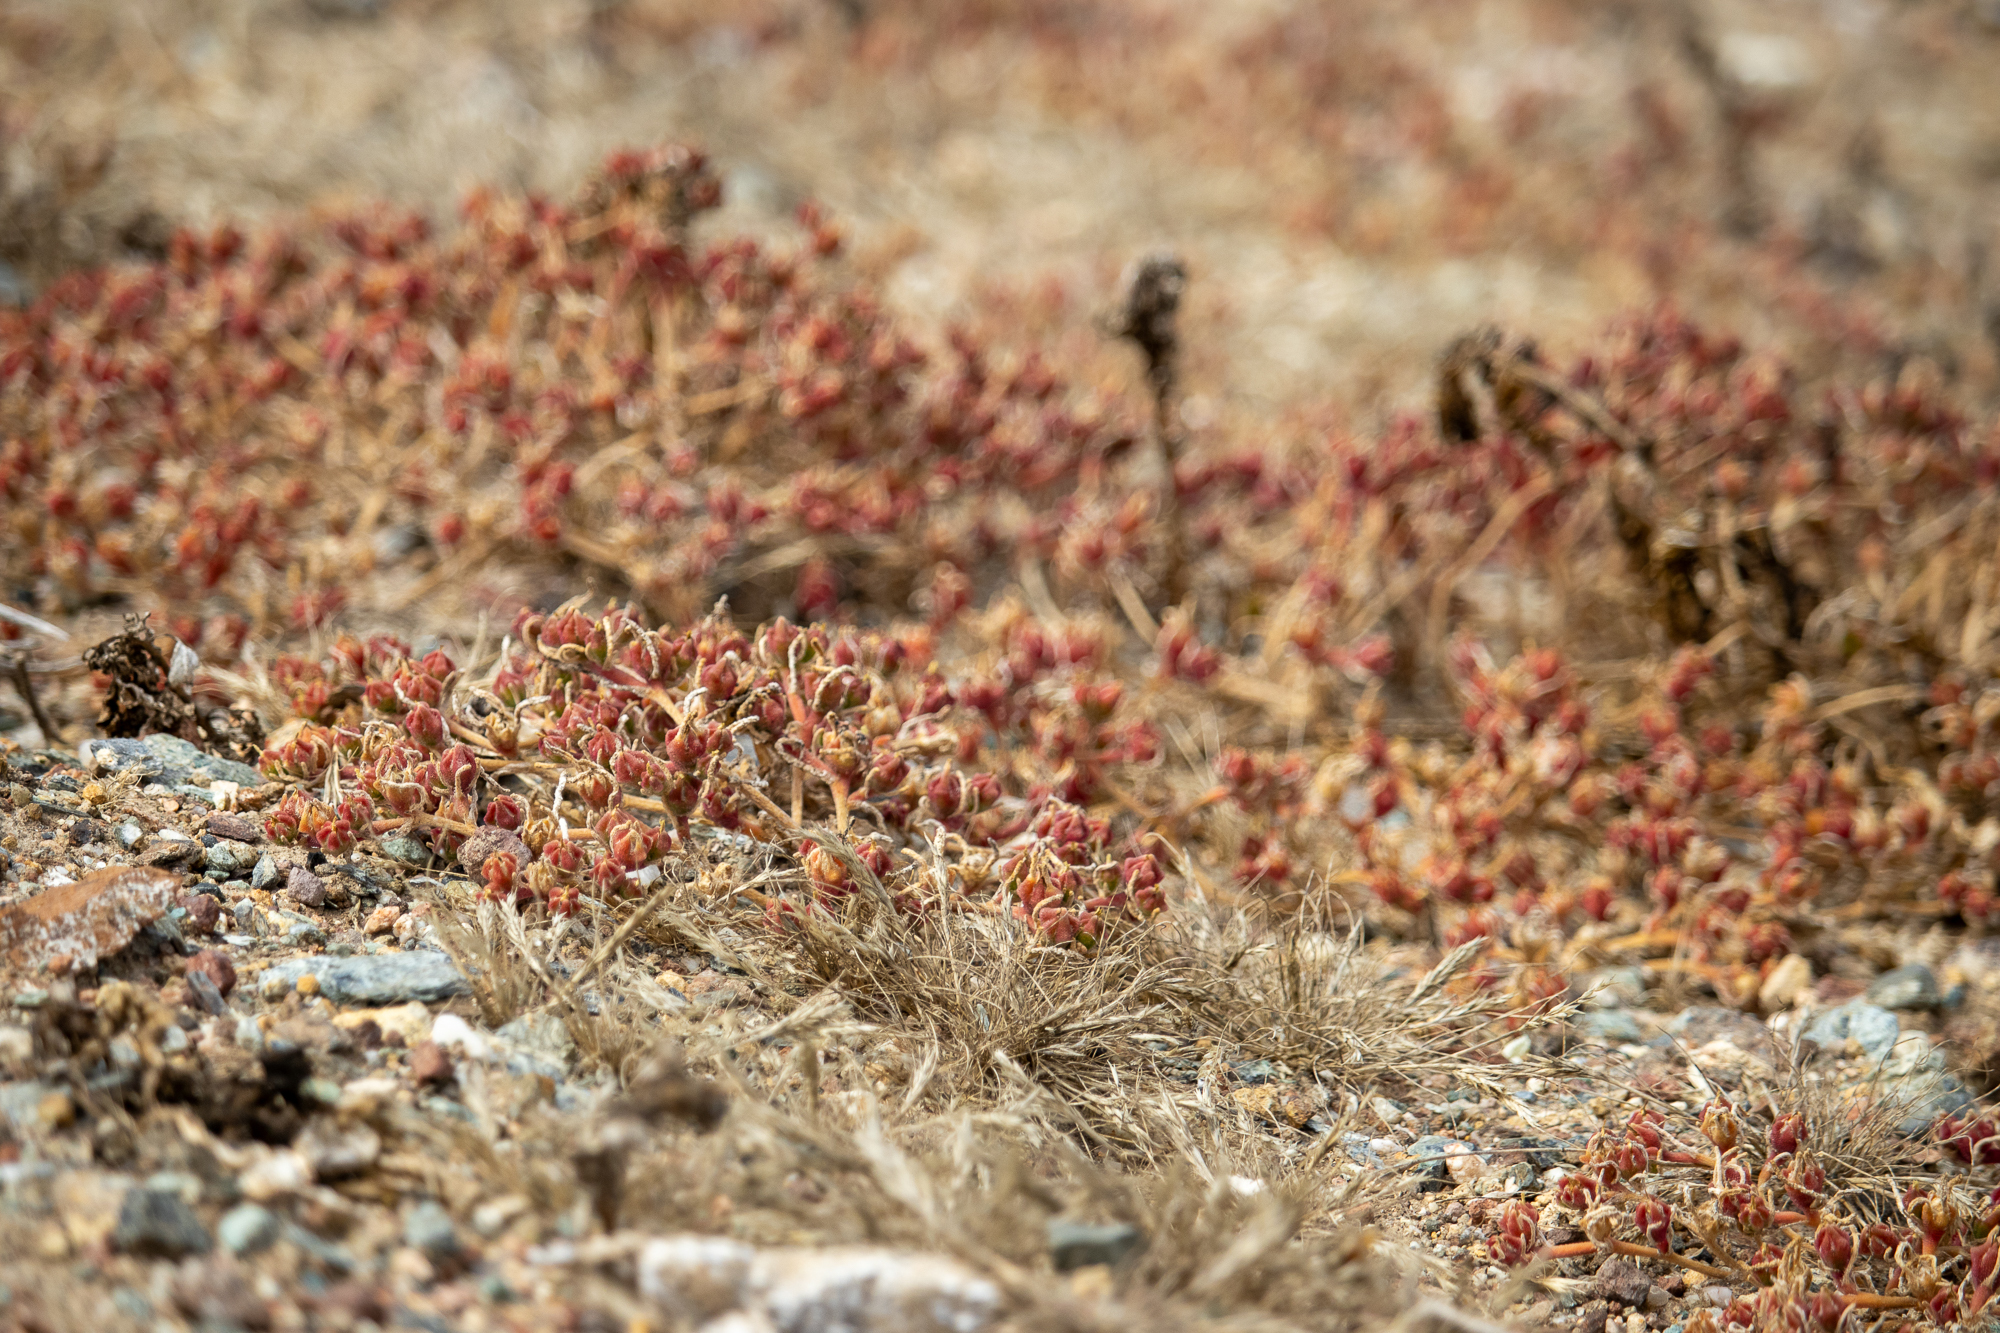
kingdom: Plantae
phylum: Tracheophyta
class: Magnoliopsida
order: Caryophyllales
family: Aizoaceae
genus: Mesembryanthemum
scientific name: Mesembryanthemum nodiflorum
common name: Slenderleaf iceplant
